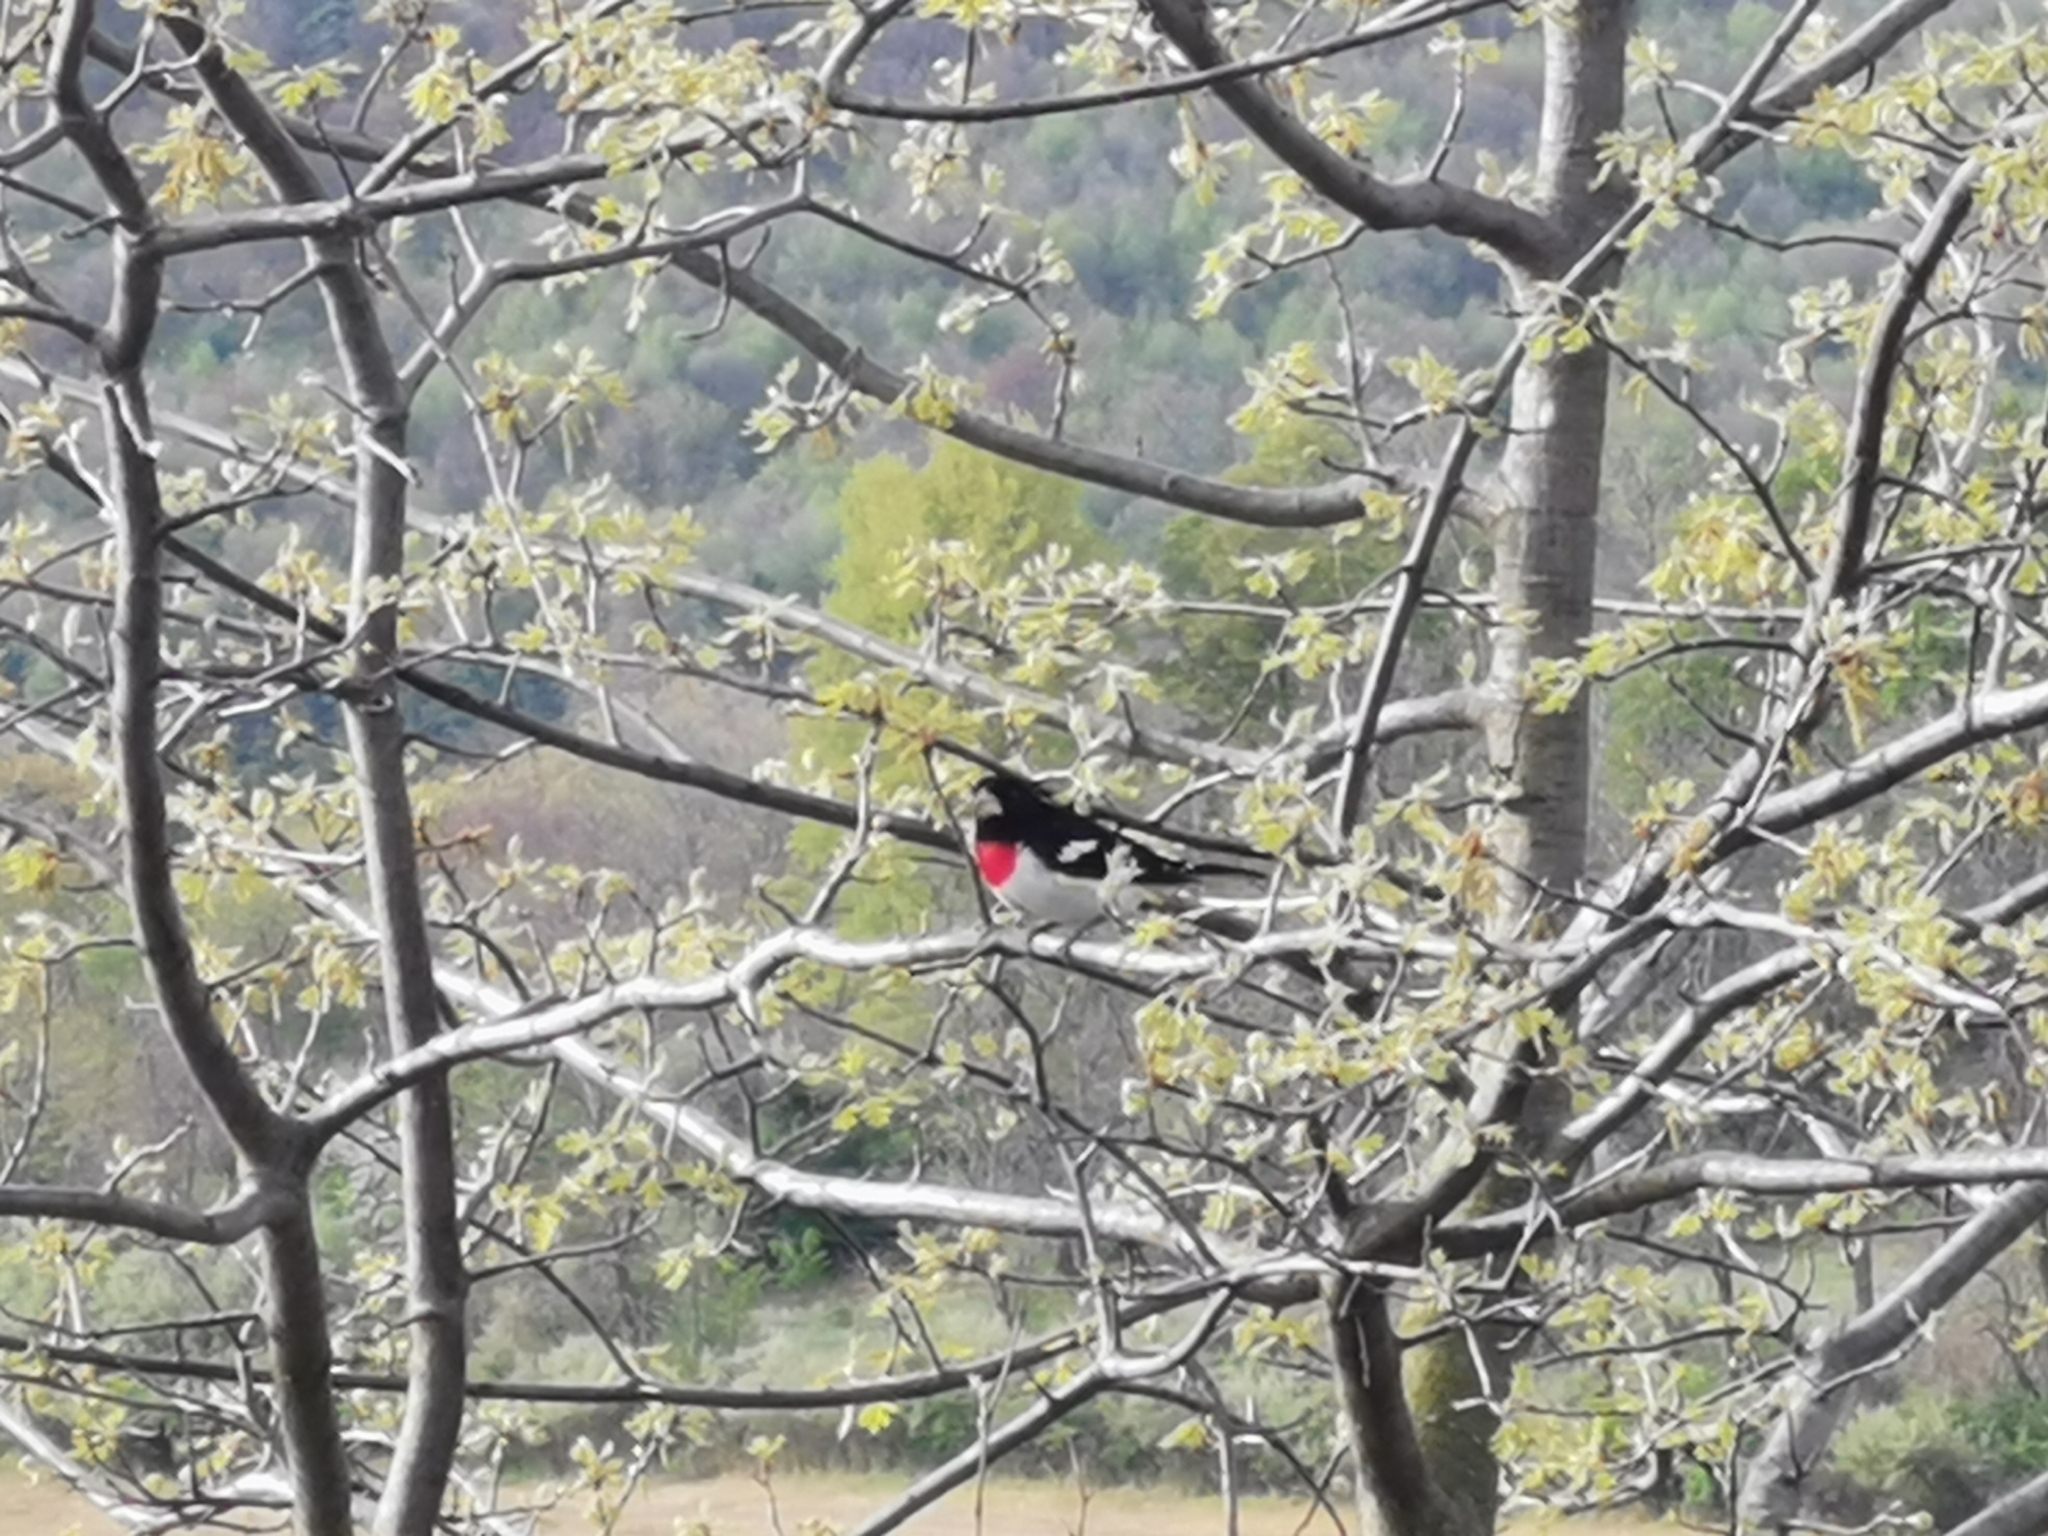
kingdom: Animalia
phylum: Chordata
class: Aves
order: Passeriformes
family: Cardinalidae
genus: Pheucticus
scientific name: Pheucticus ludovicianus
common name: Rose-breasted grosbeak
